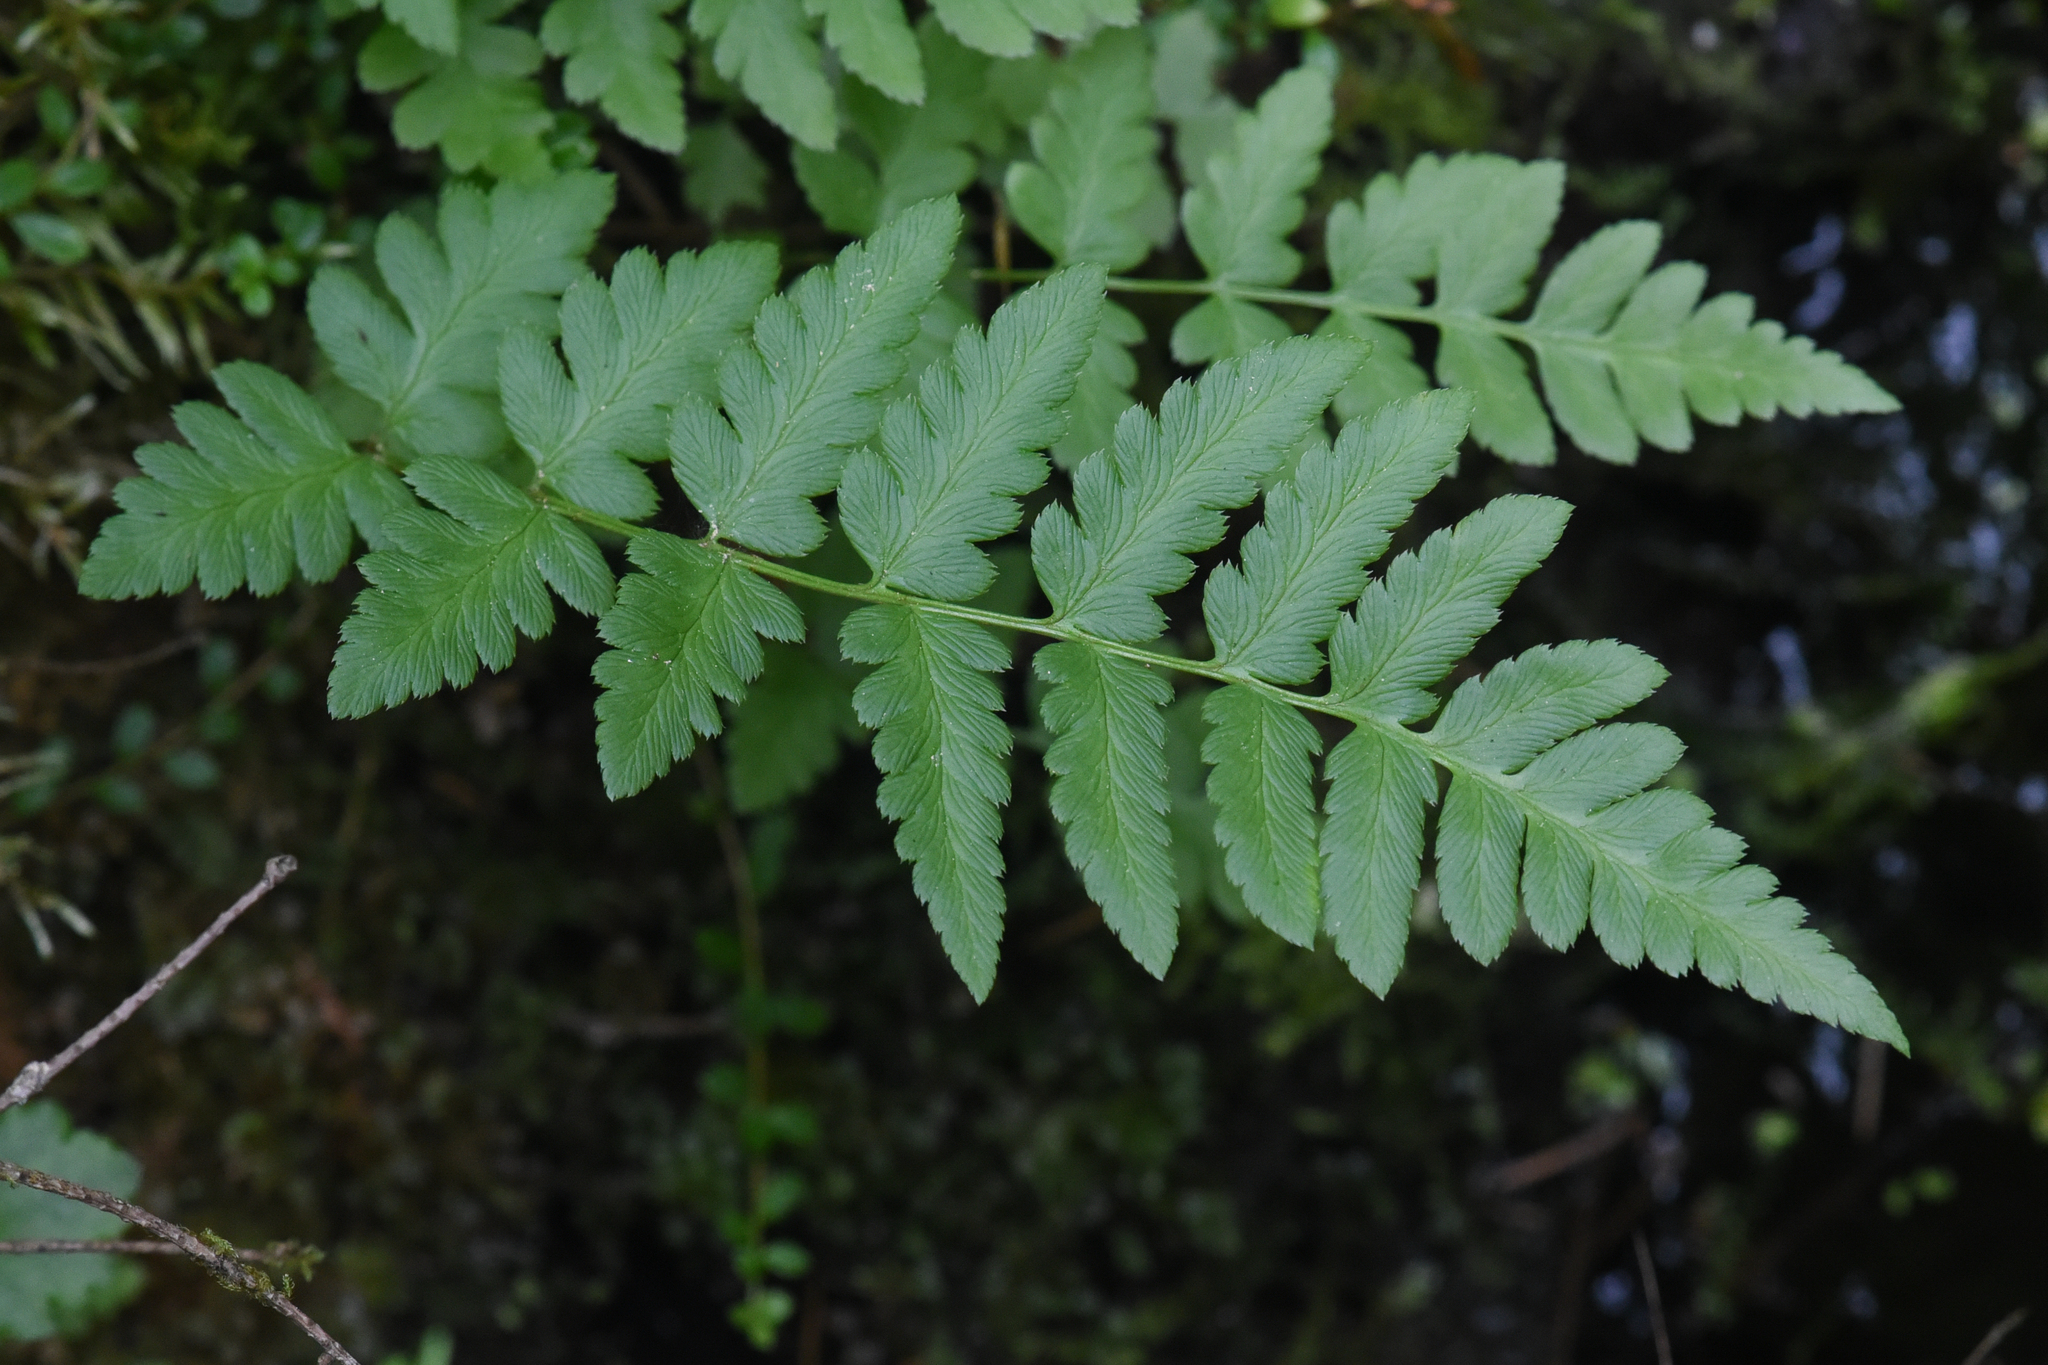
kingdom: Plantae
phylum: Tracheophyta
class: Polypodiopsida
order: Polypodiales
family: Dryopteridaceae
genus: Dryopteris
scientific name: Dryopteris cristata
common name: Crested wood fern
